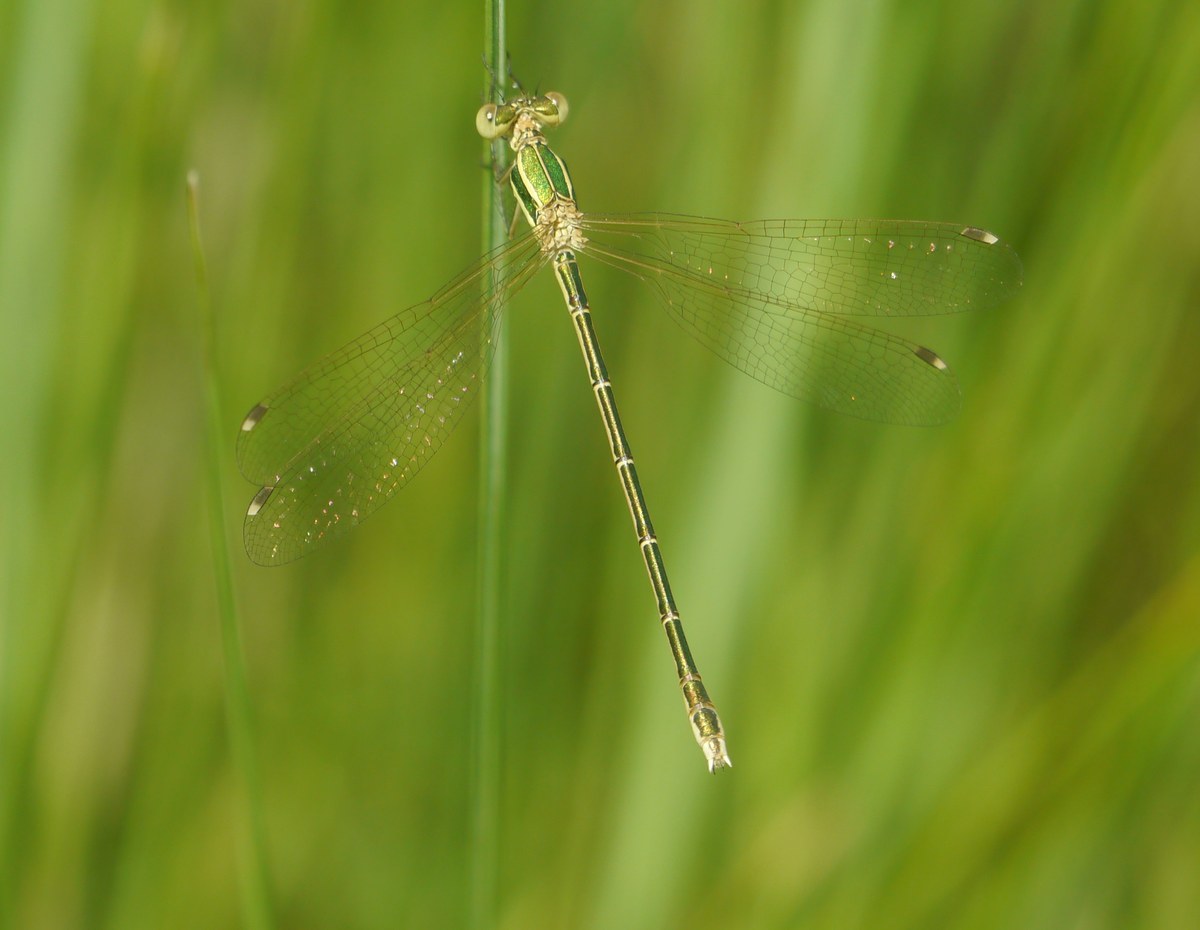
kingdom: Animalia
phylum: Arthropoda
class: Insecta
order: Odonata
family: Lestidae
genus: Lestes
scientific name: Lestes barbarus
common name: Migrant spreadwing
